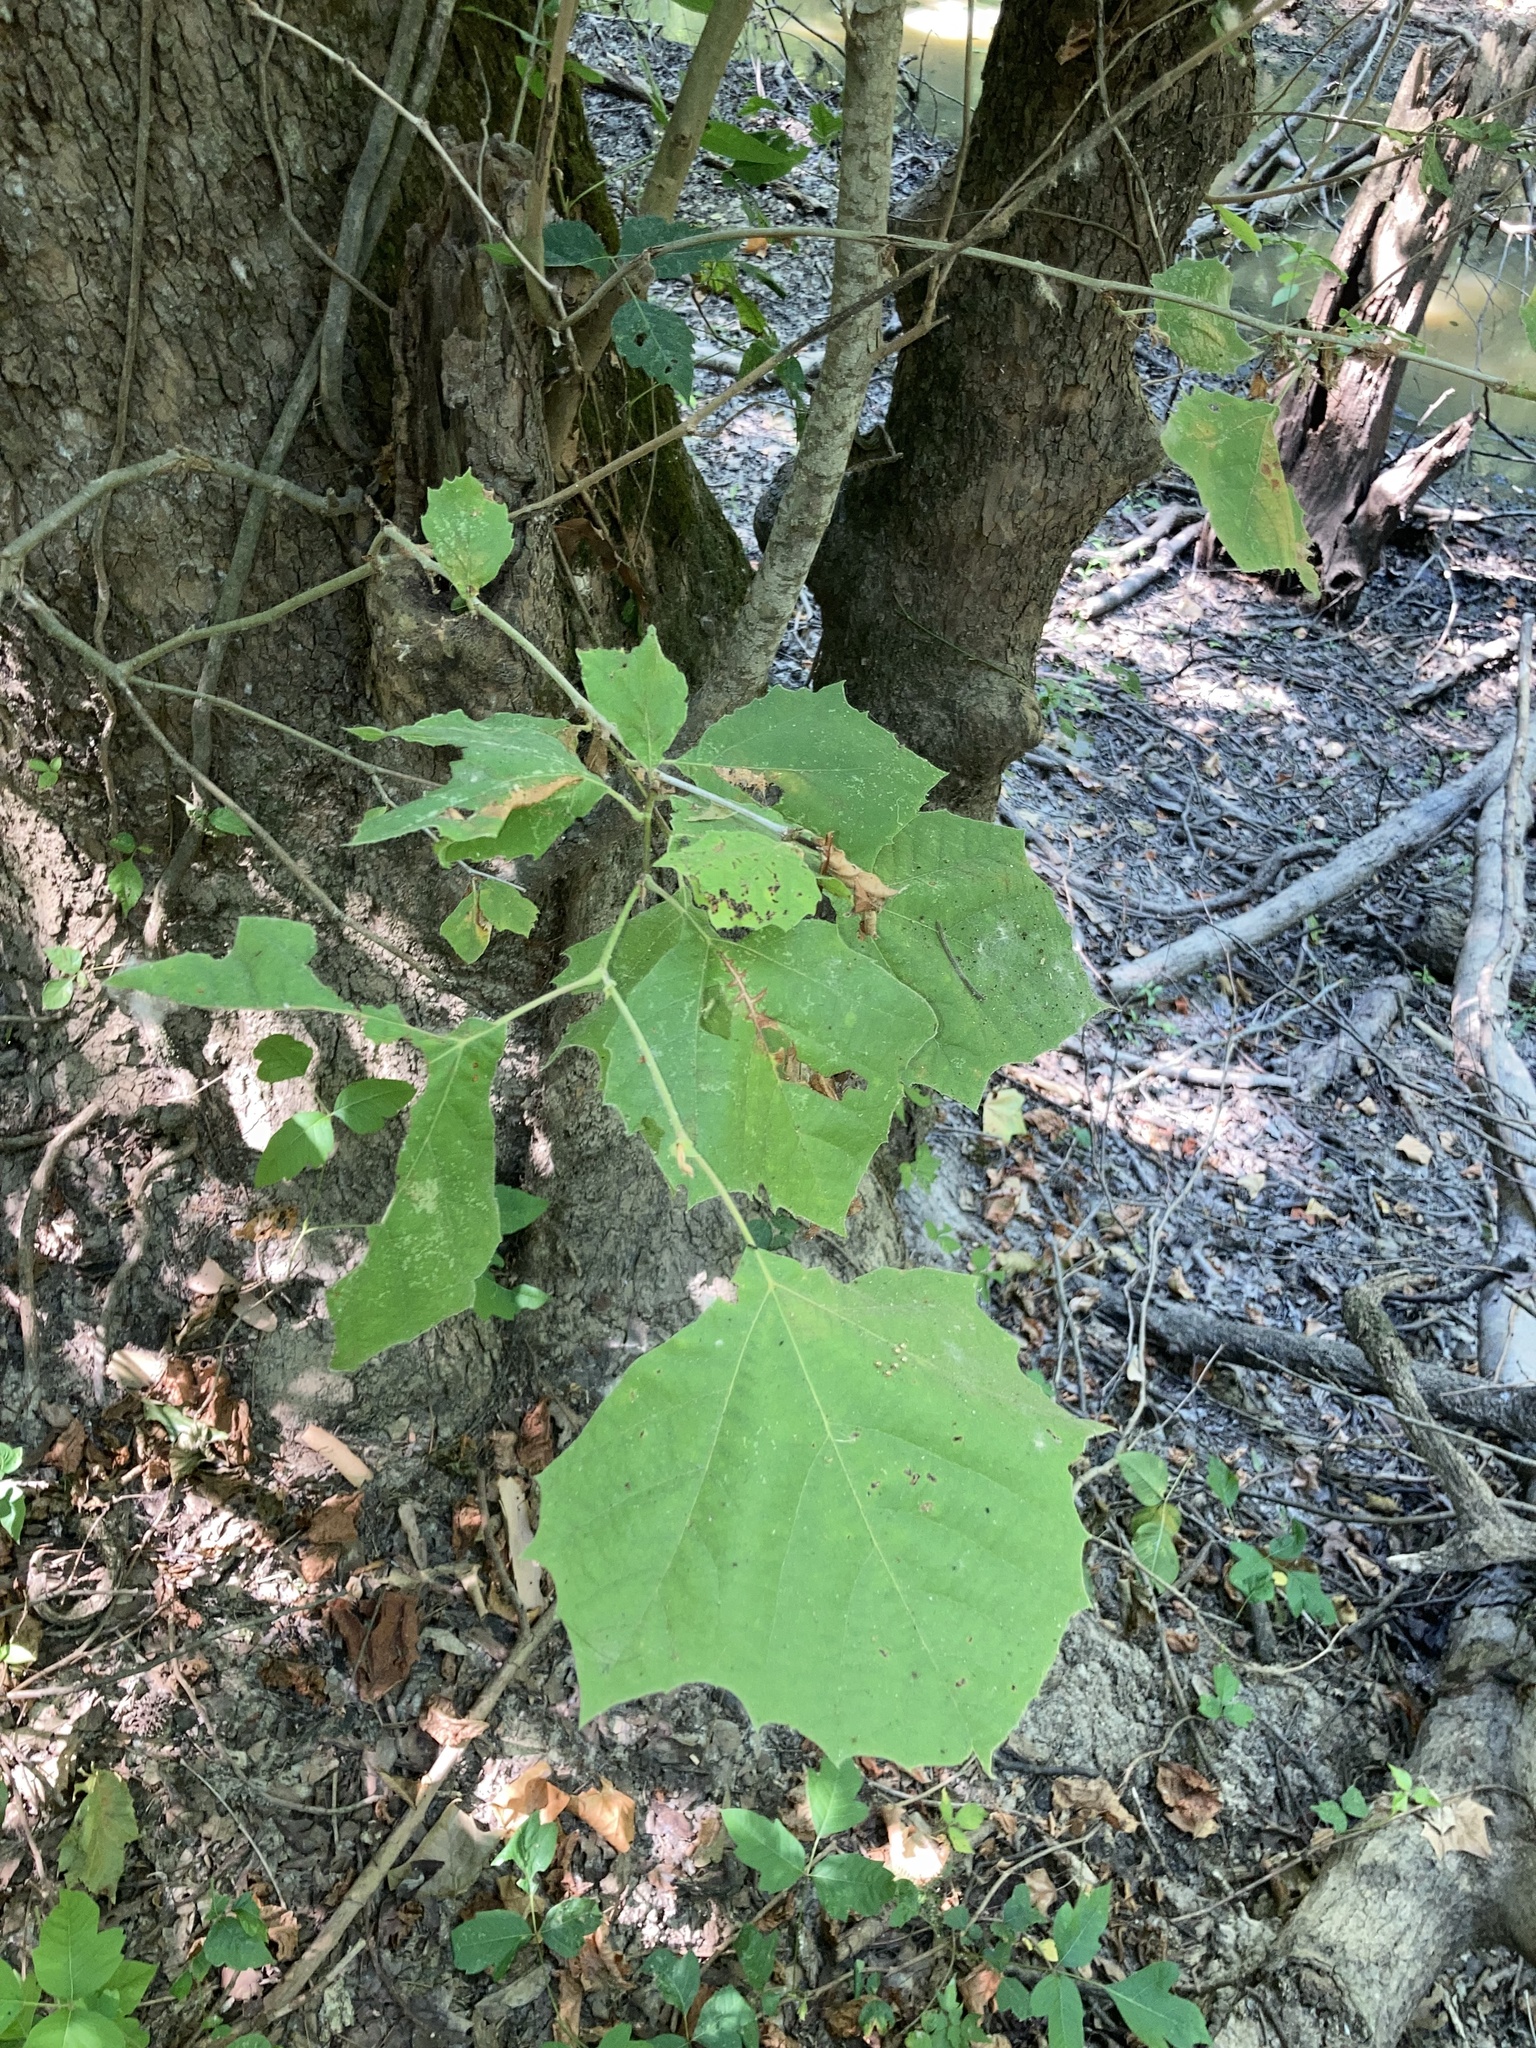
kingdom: Plantae
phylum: Tracheophyta
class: Magnoliopsida
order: Proteales
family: Platanaceae
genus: Platanus
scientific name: Platanus occidentalis
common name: American sycamore
